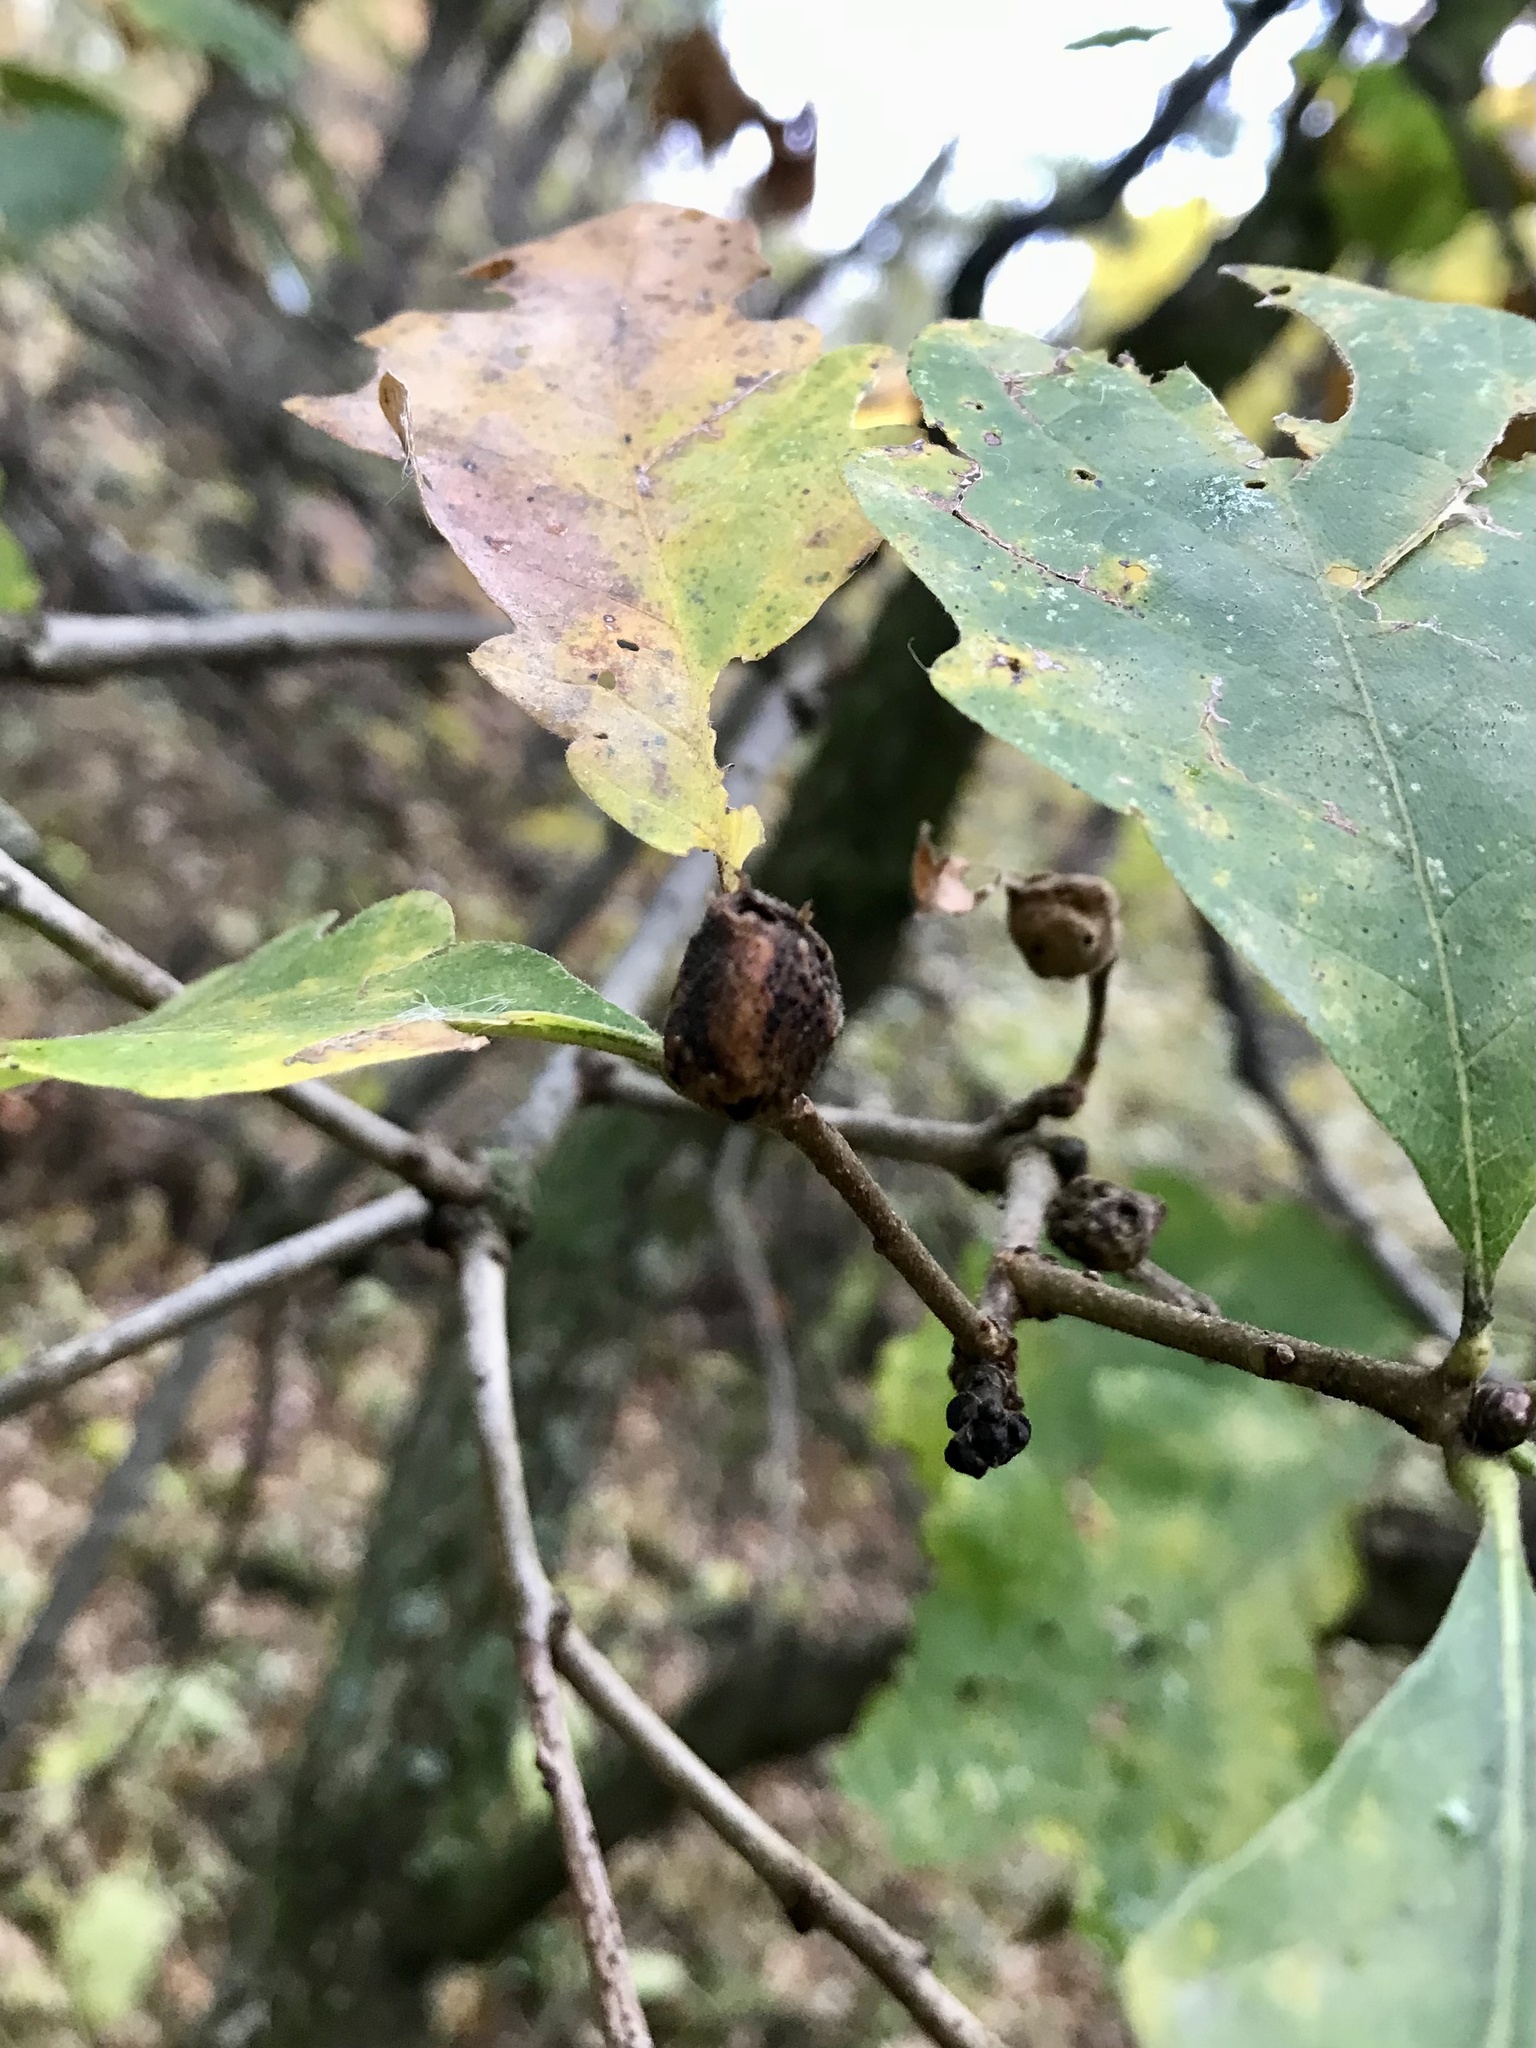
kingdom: Animalia
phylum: Arthropoda
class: Insecta
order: Hymenoptera
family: Cynipidae
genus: Andricus
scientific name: Andricus
